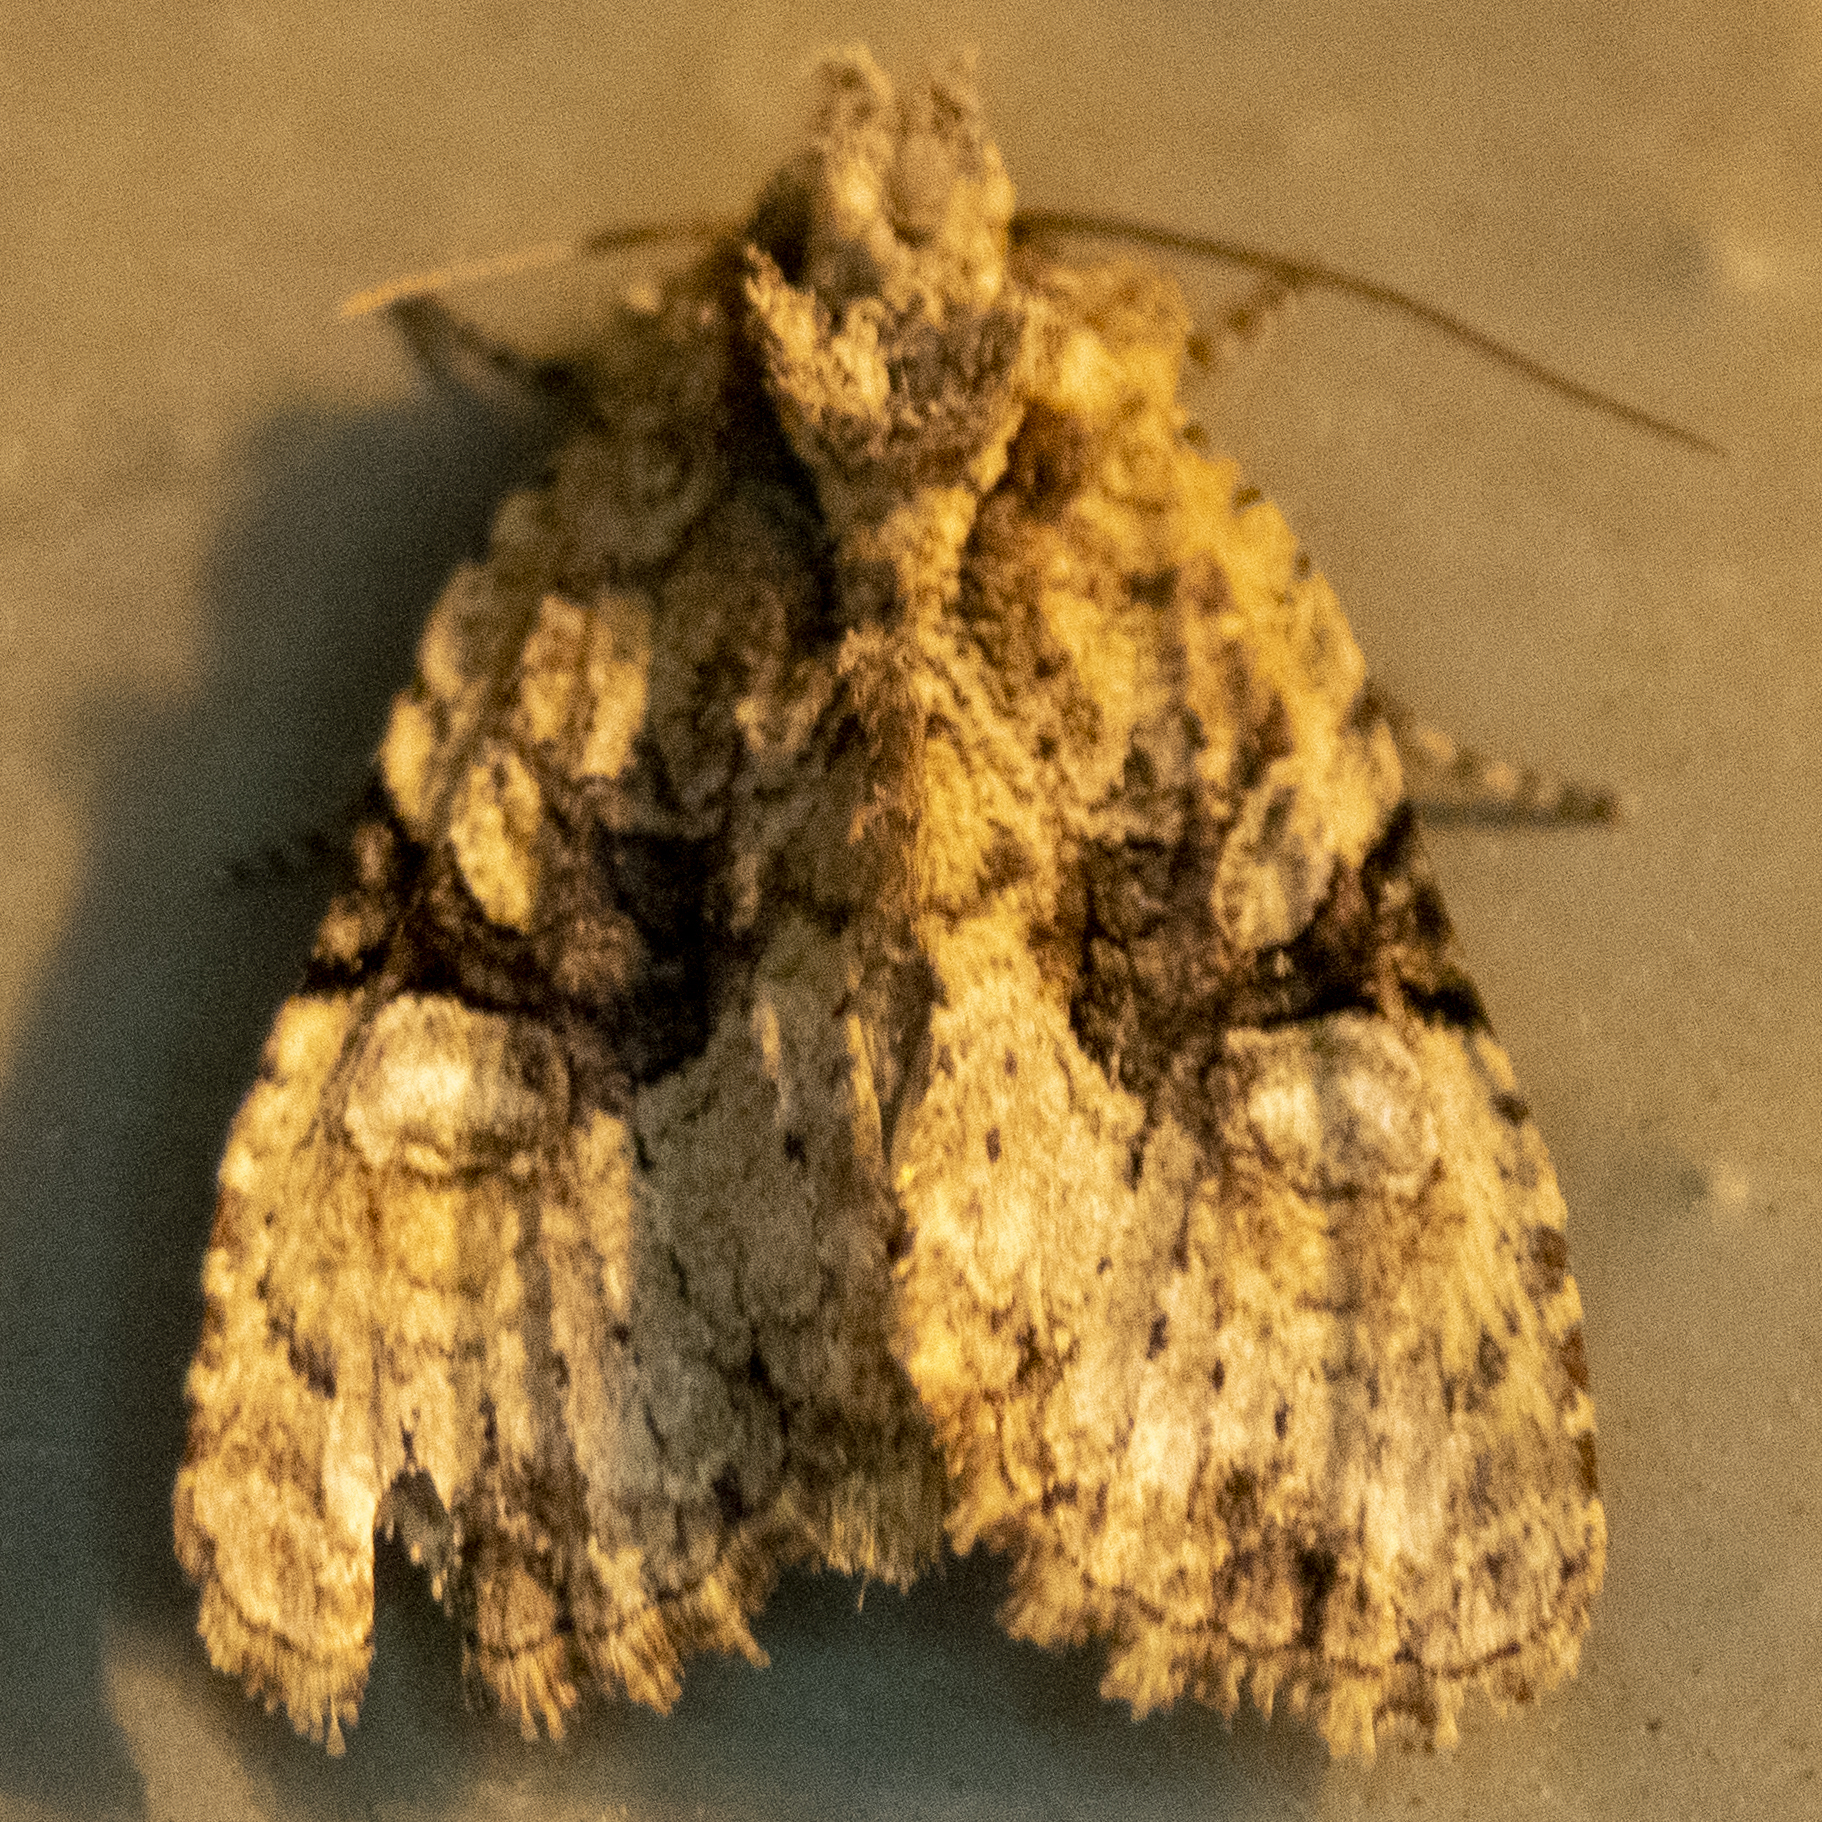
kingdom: Animalia
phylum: Arthropoda
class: Insecta
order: Lepidoptera
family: Noctuidae
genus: Oligia
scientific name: Oligia modica
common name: Black-banded brocade
